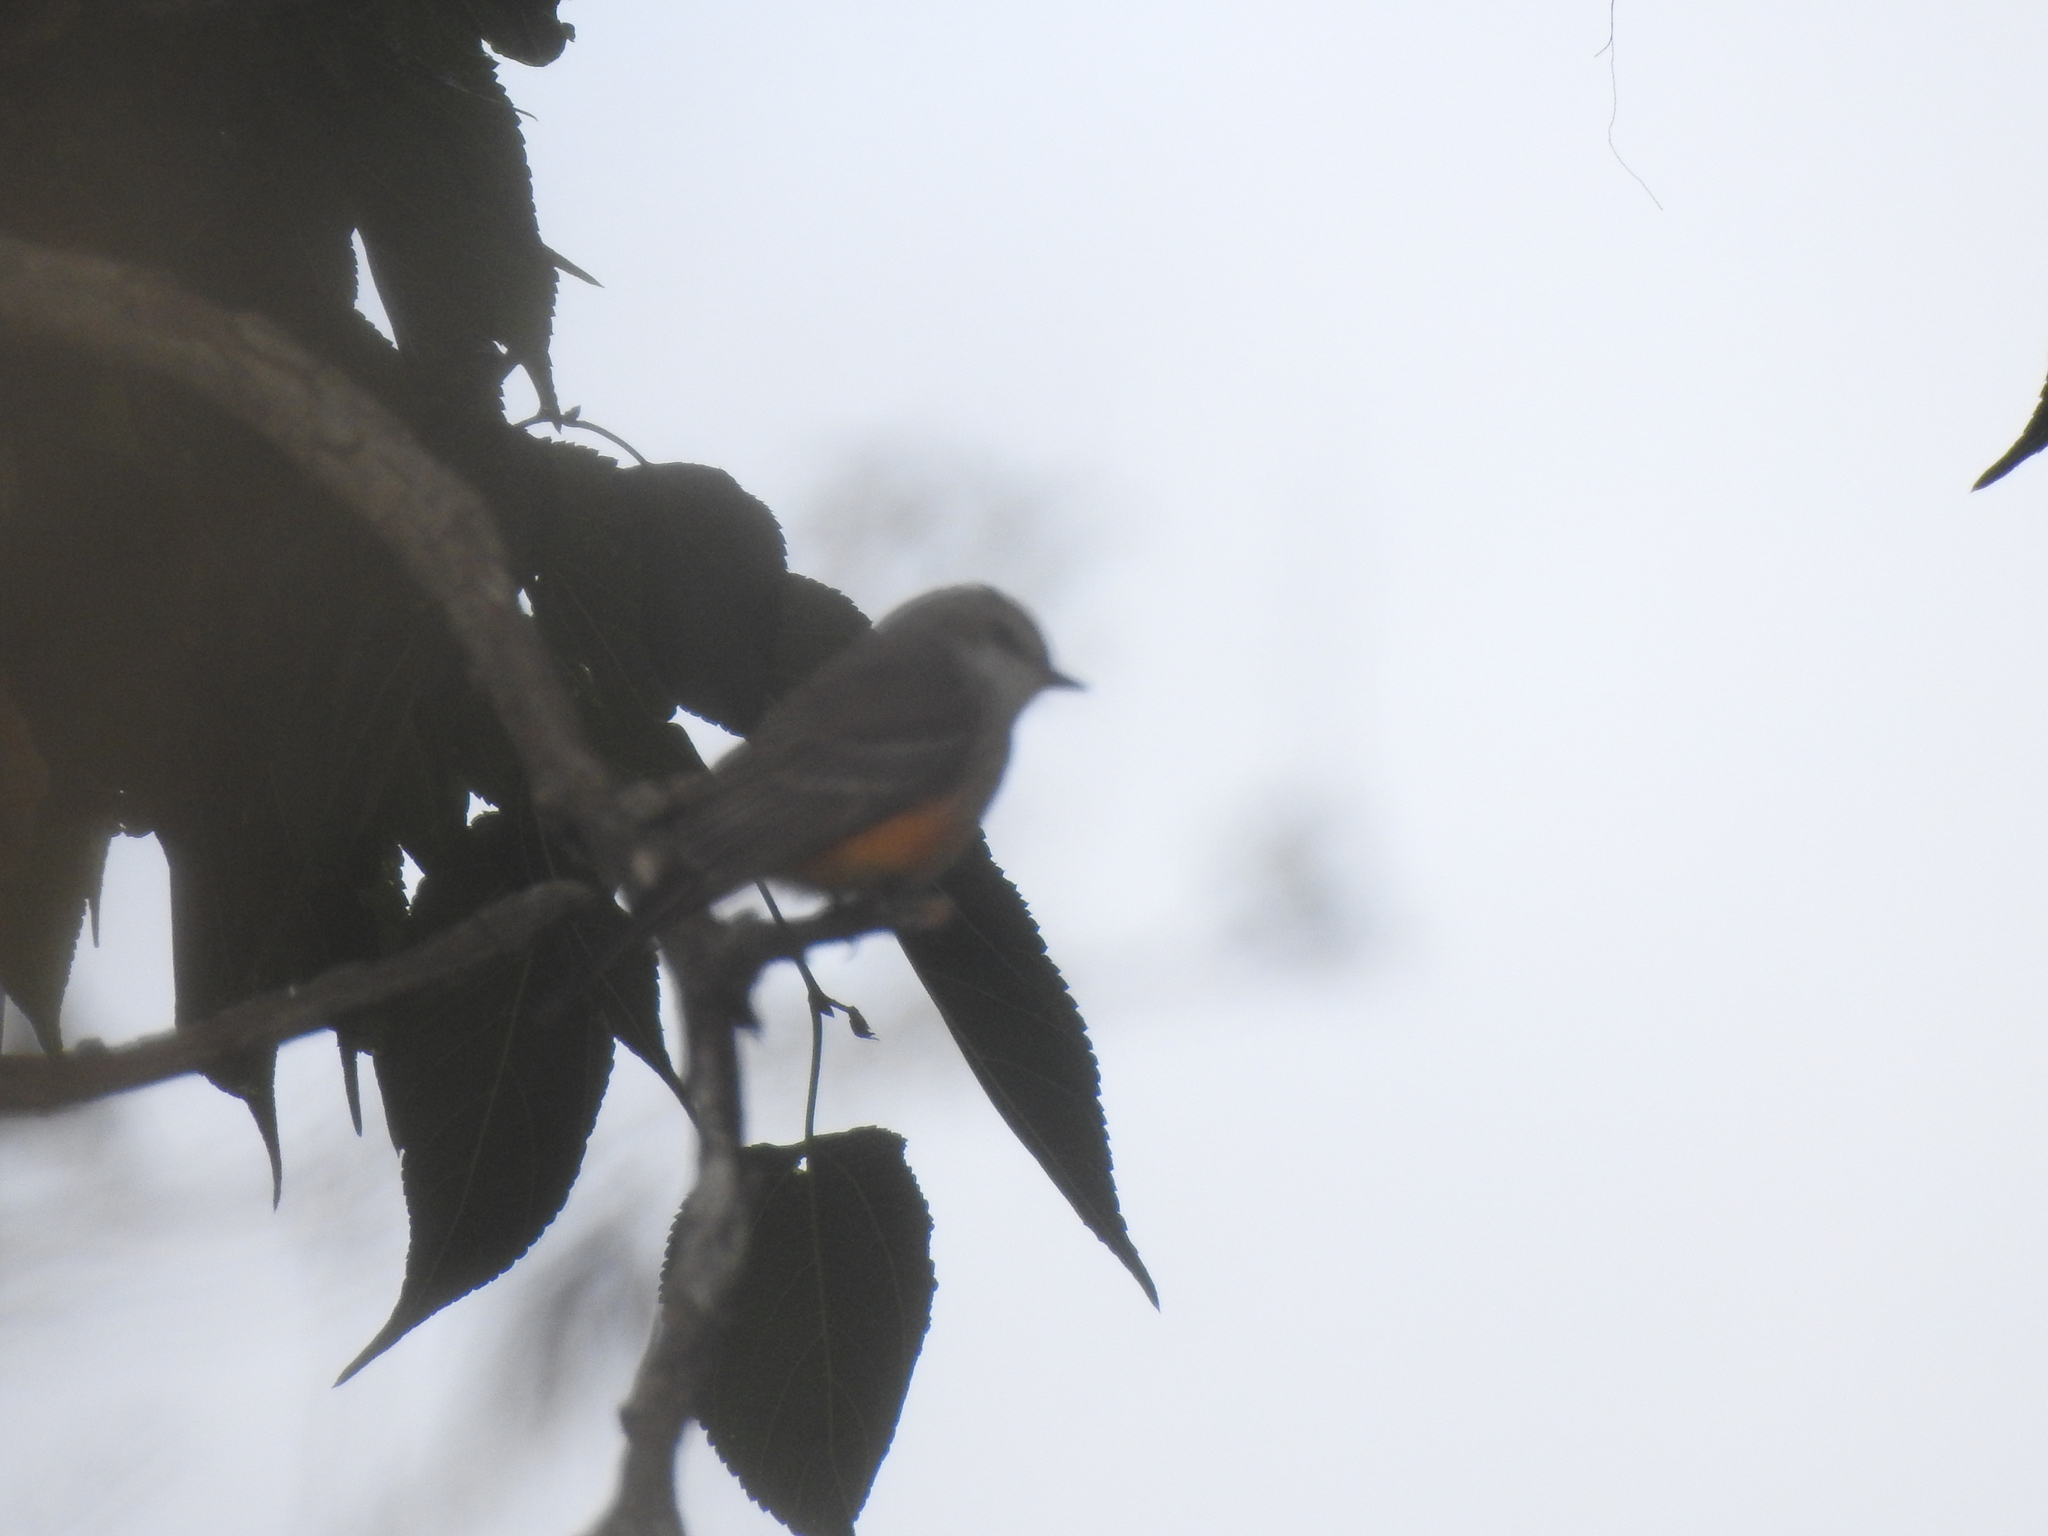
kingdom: Animalia
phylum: Chordata
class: Aves
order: Passeriformes
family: Tyrannidae
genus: Pyrocephalus
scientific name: Pyrocephalus rubinus
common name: Vermilion flycatcher
